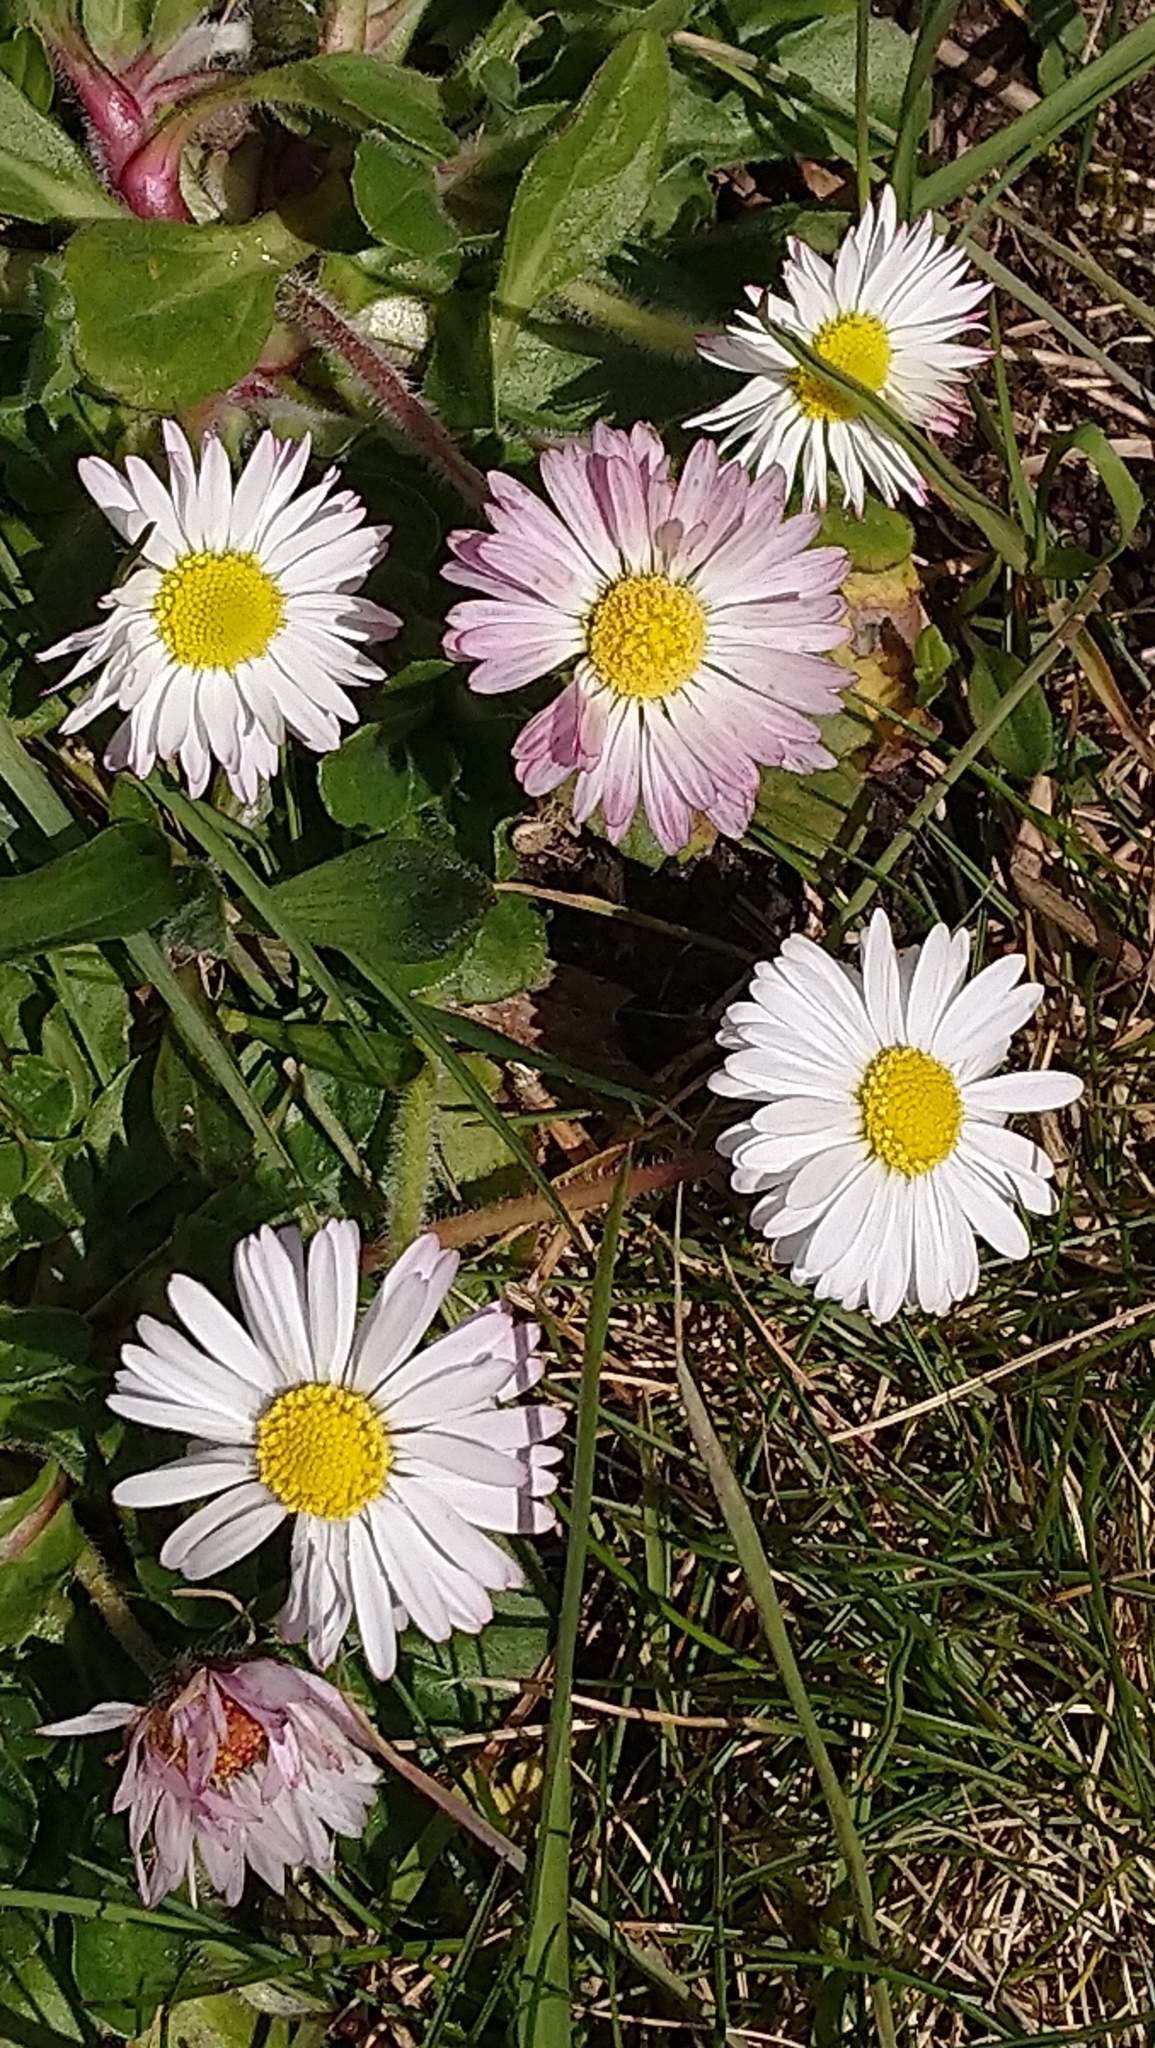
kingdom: Plantae
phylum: Tracheophyta
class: Magnoliopsida
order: Asterales
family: Asteraceae
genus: Bellis
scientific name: Bellis perennis
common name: Lawndaisy
